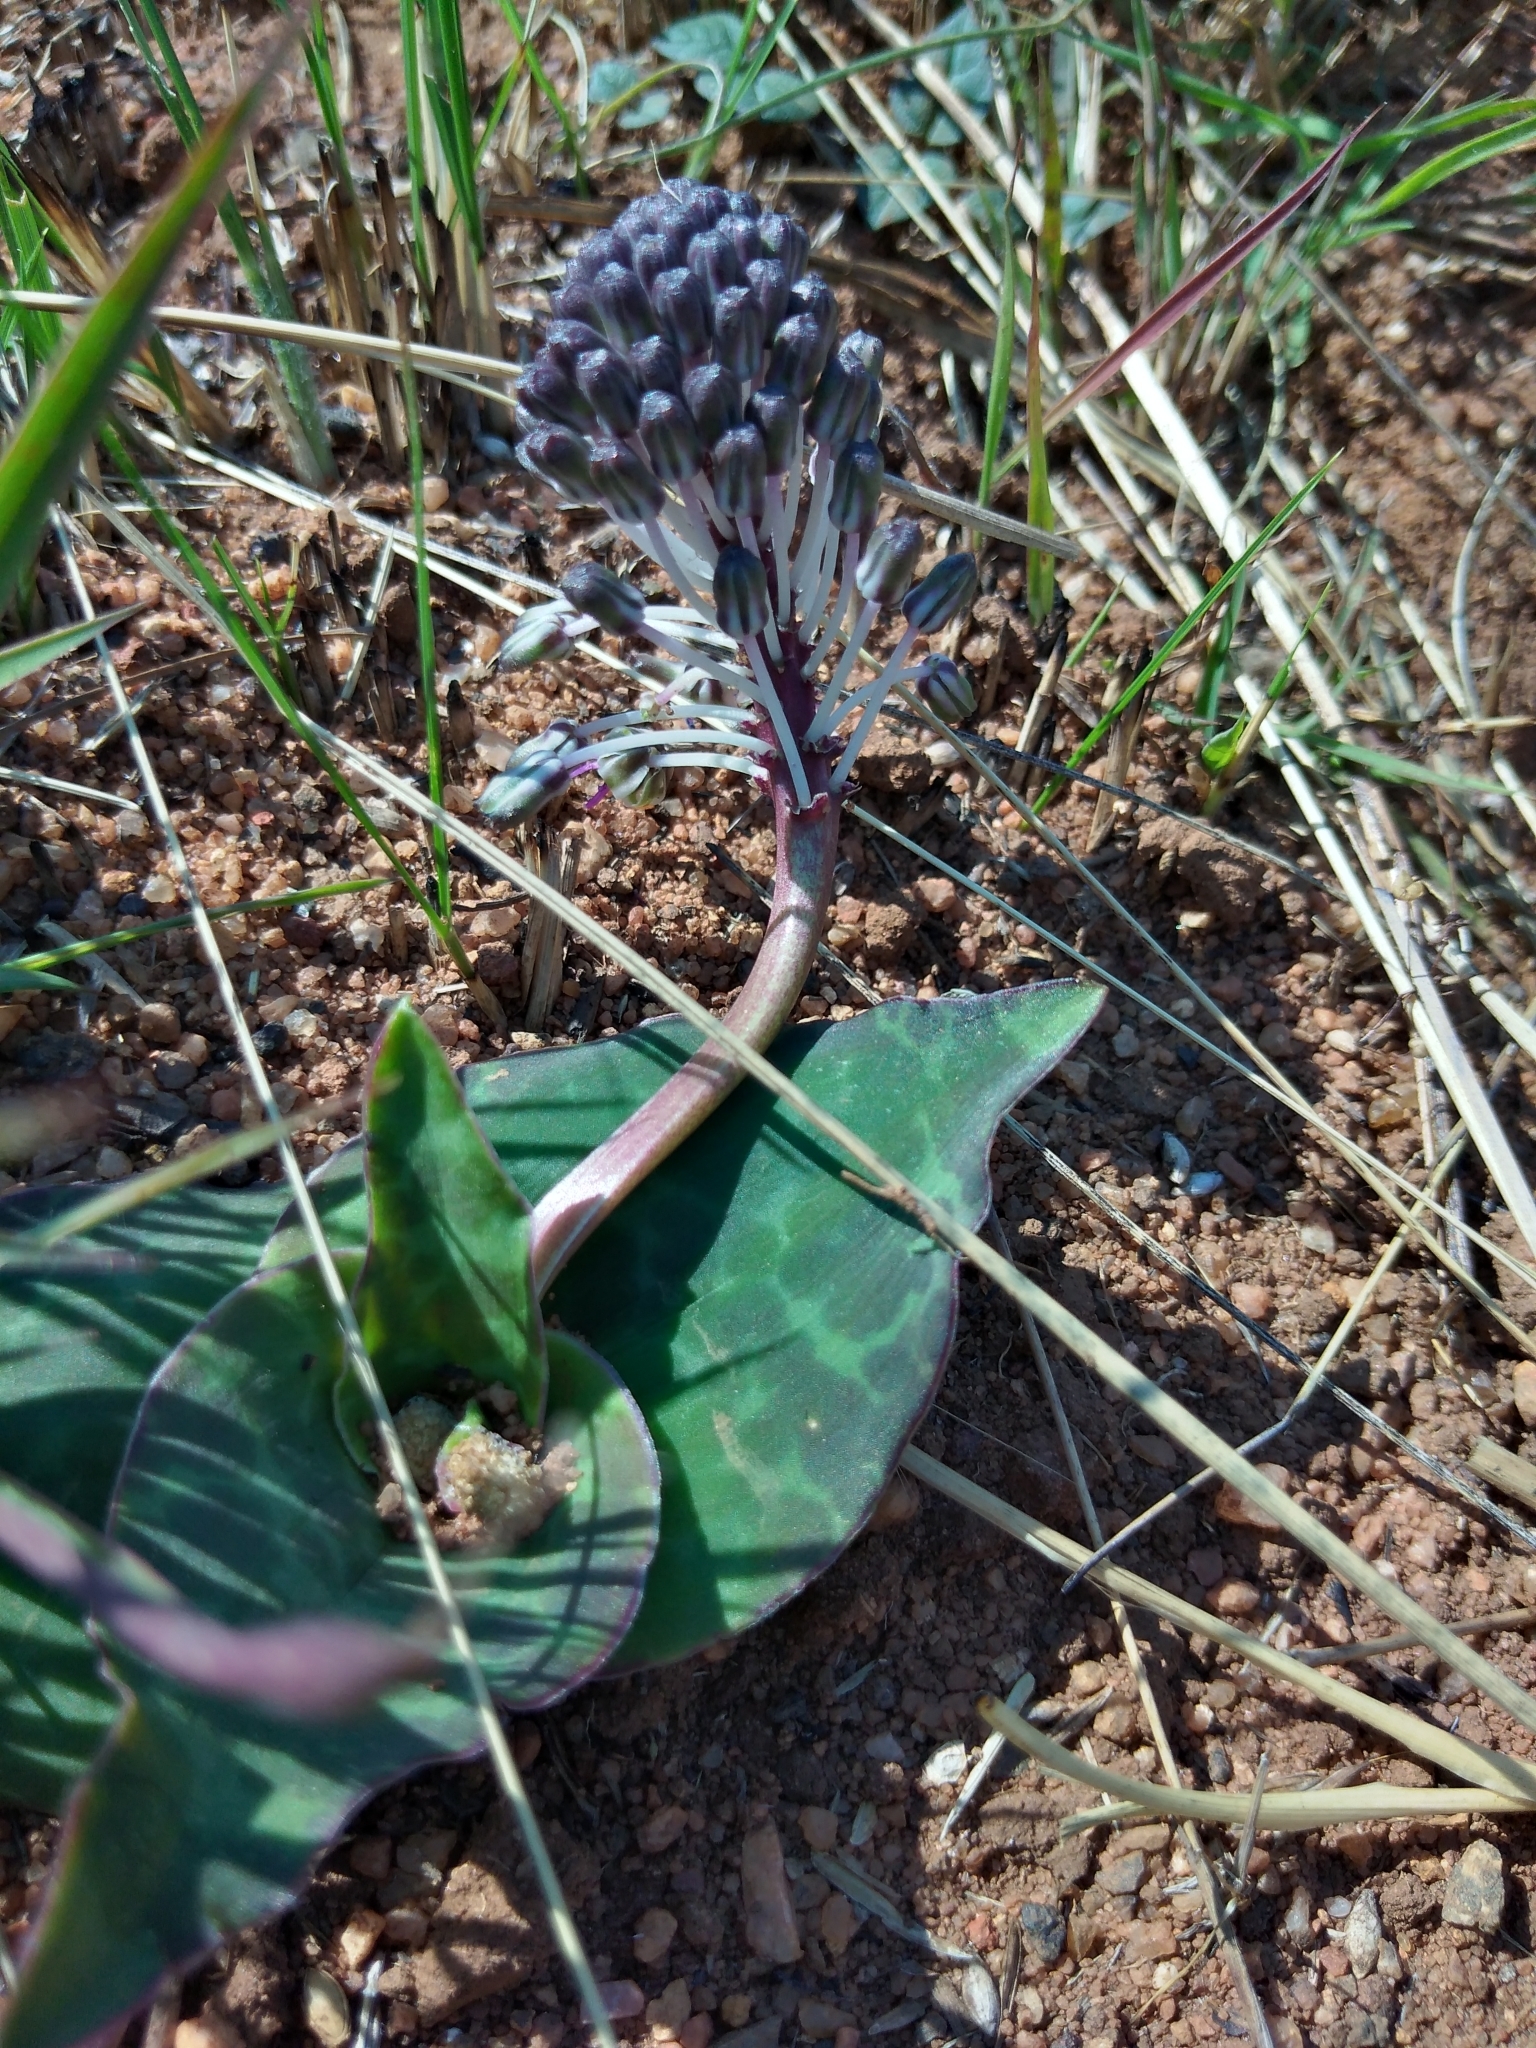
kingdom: Plantae
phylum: Tracheophyta
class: Liliopsida
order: Asparagales
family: Asparagaceae
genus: Ledebouria
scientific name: Ledebouria ovatifolia
